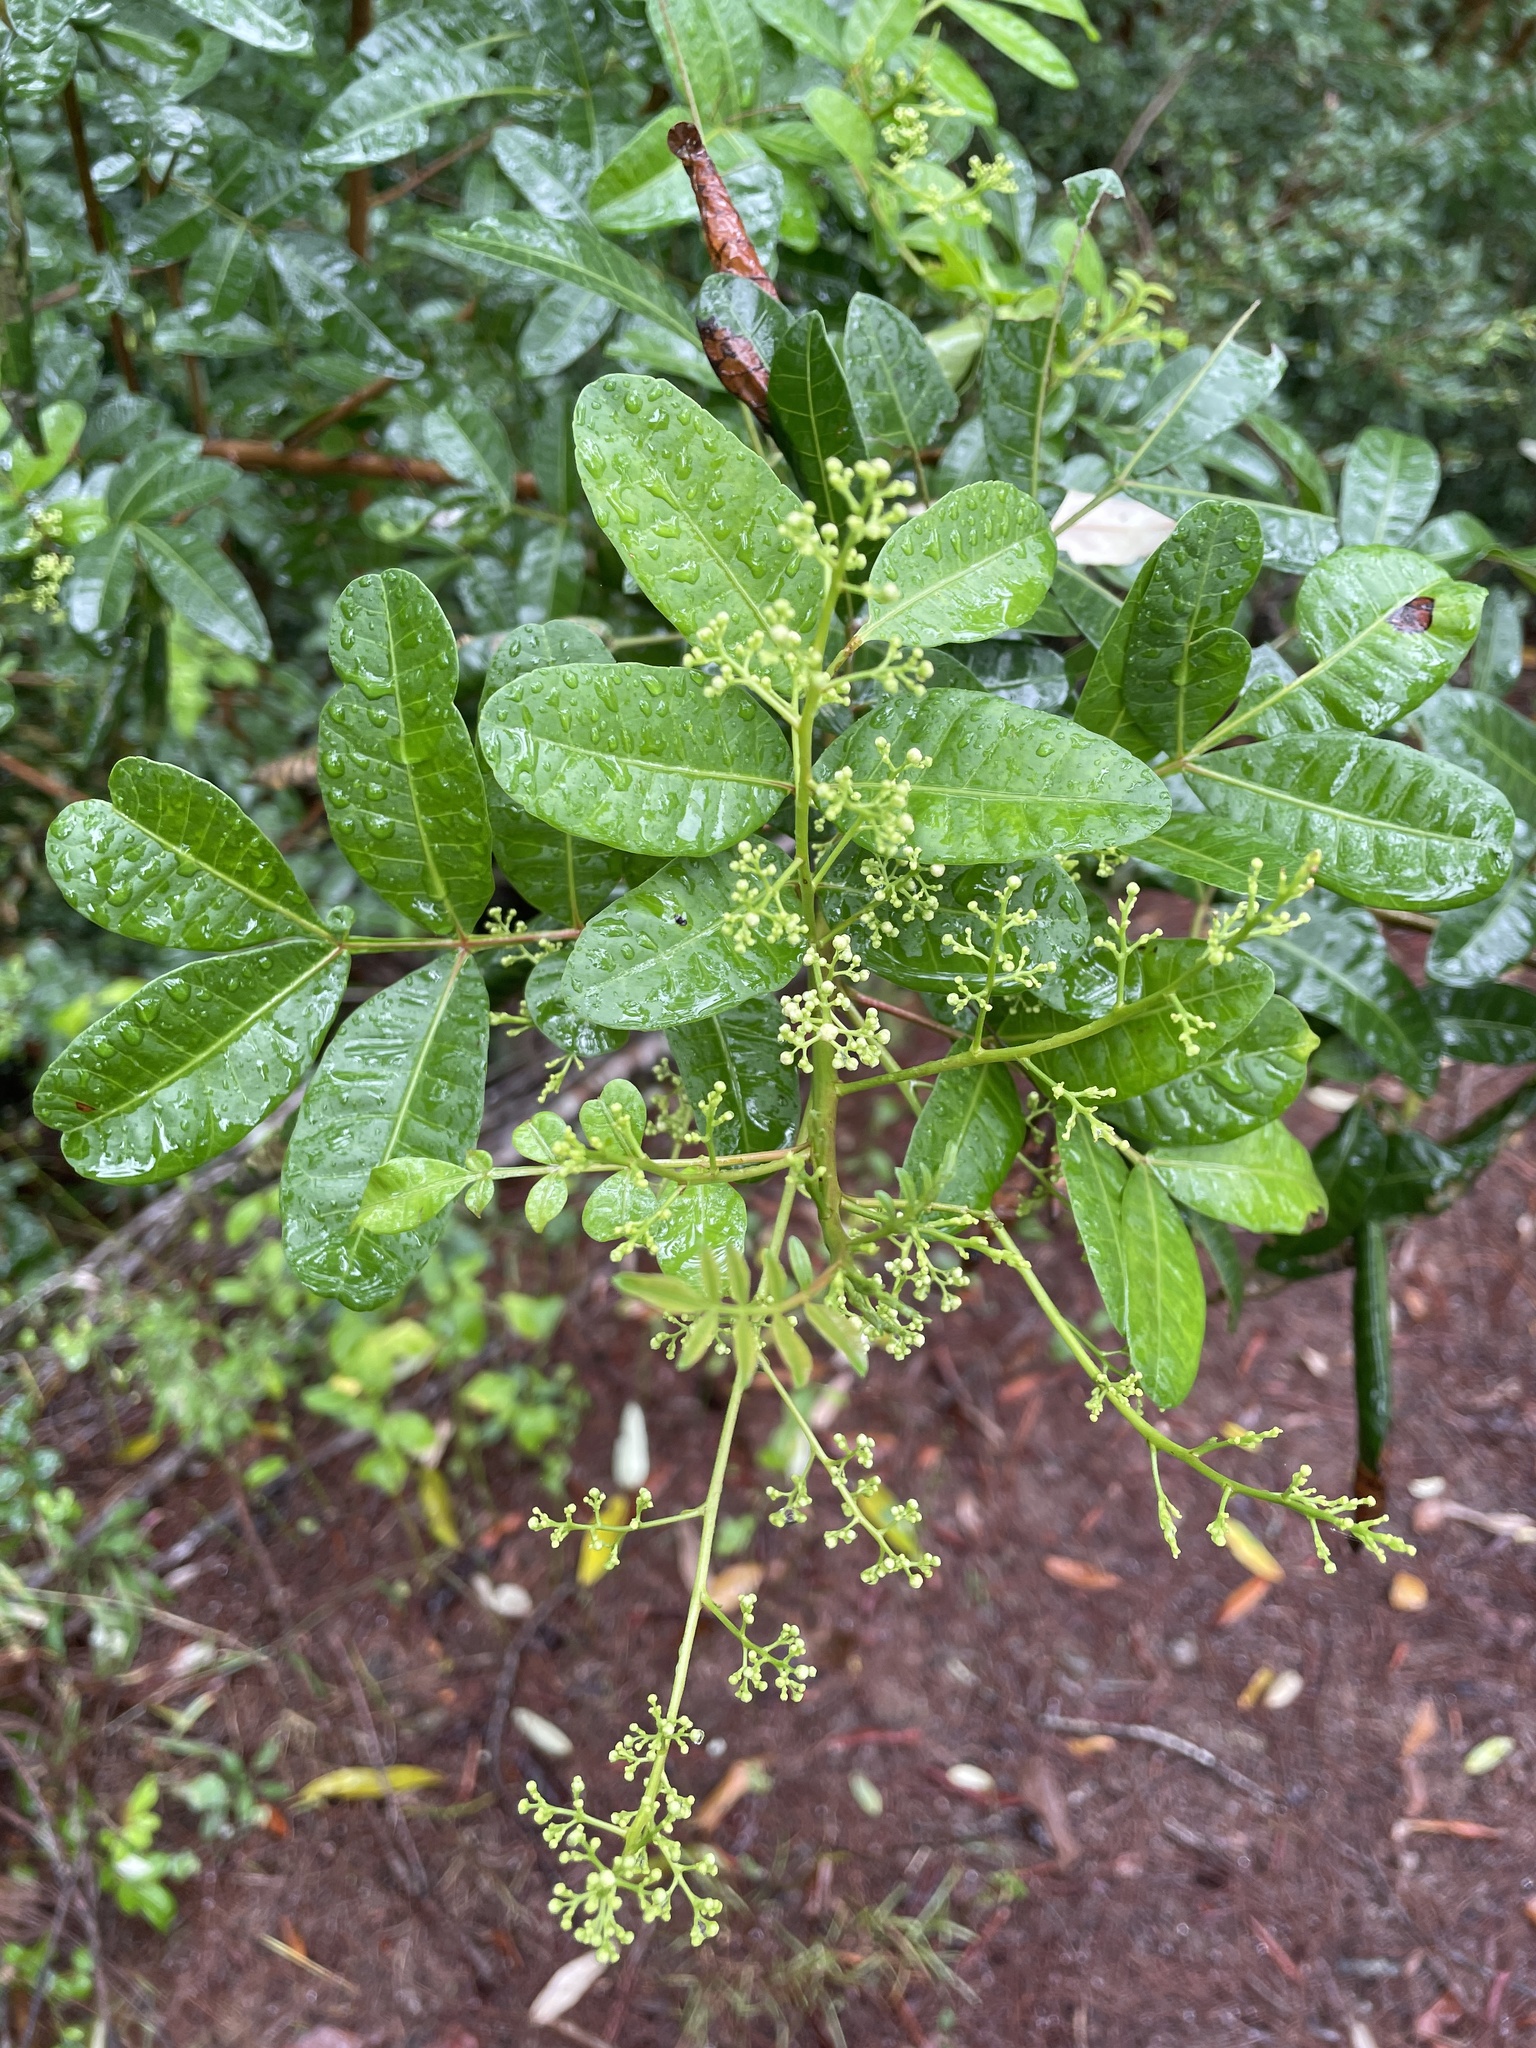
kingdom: Plantae
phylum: Tracheophyta
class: Magnoliopsida
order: Sapindales
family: Anacardiaceae
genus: Schinus
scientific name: Schinus terebinthifolia
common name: Brazilian peppertree
